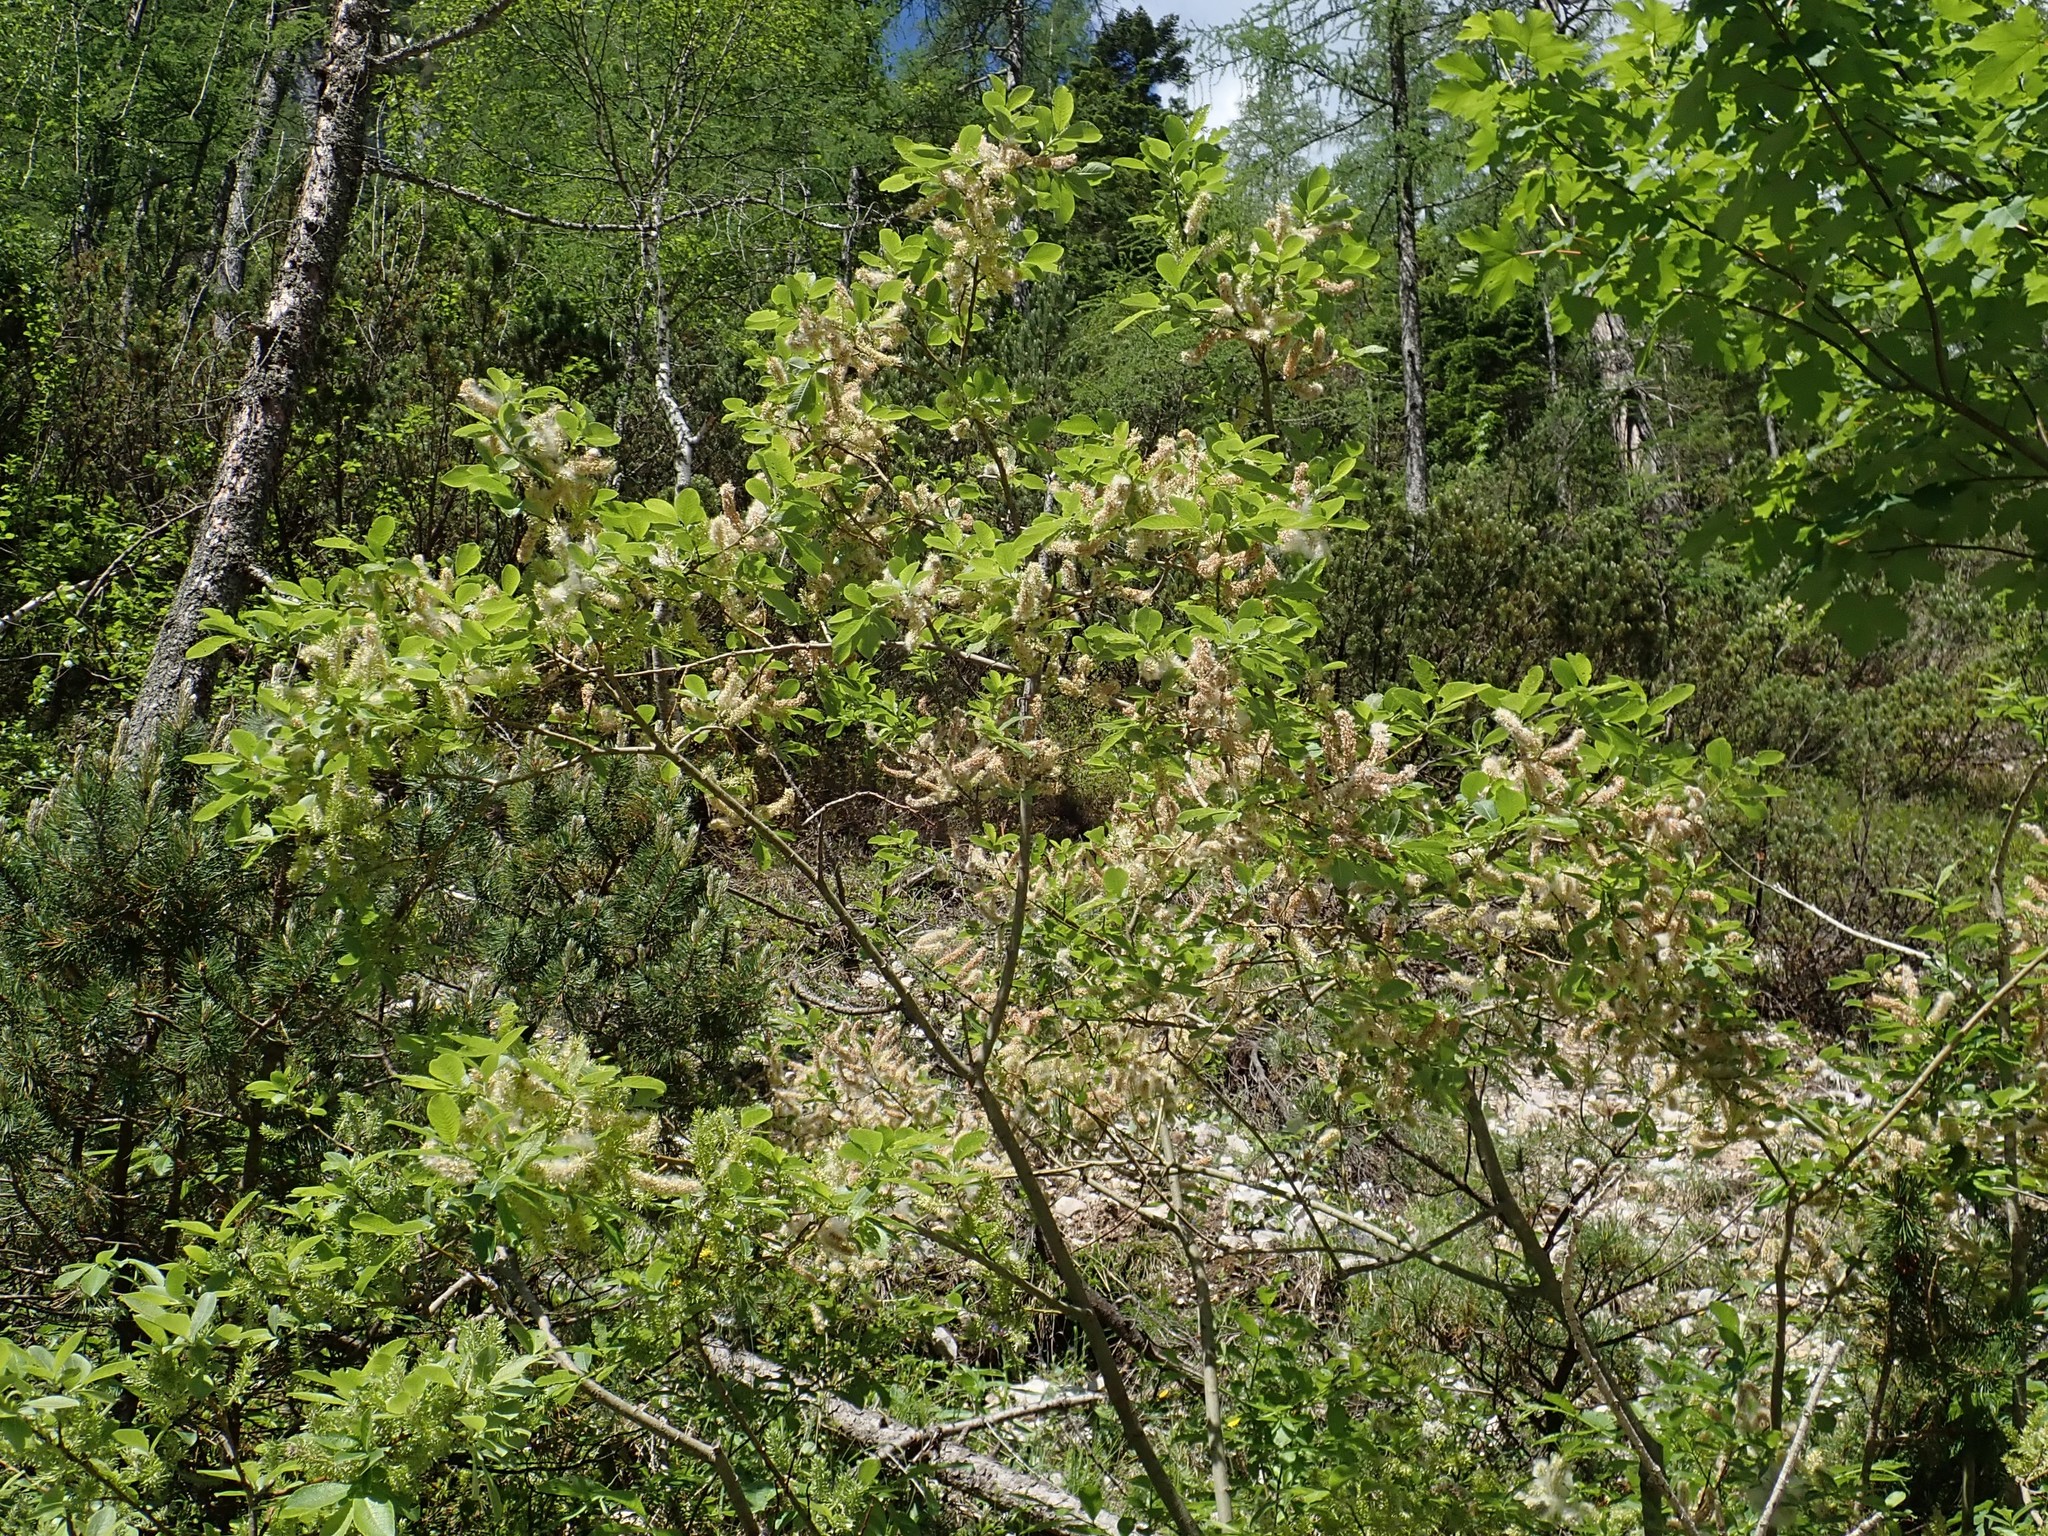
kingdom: Plantae
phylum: Tracheophyta
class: Magnoliopsida
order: Malpighiales
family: Salicaceae
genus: Salix
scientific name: Salix appendiculata
